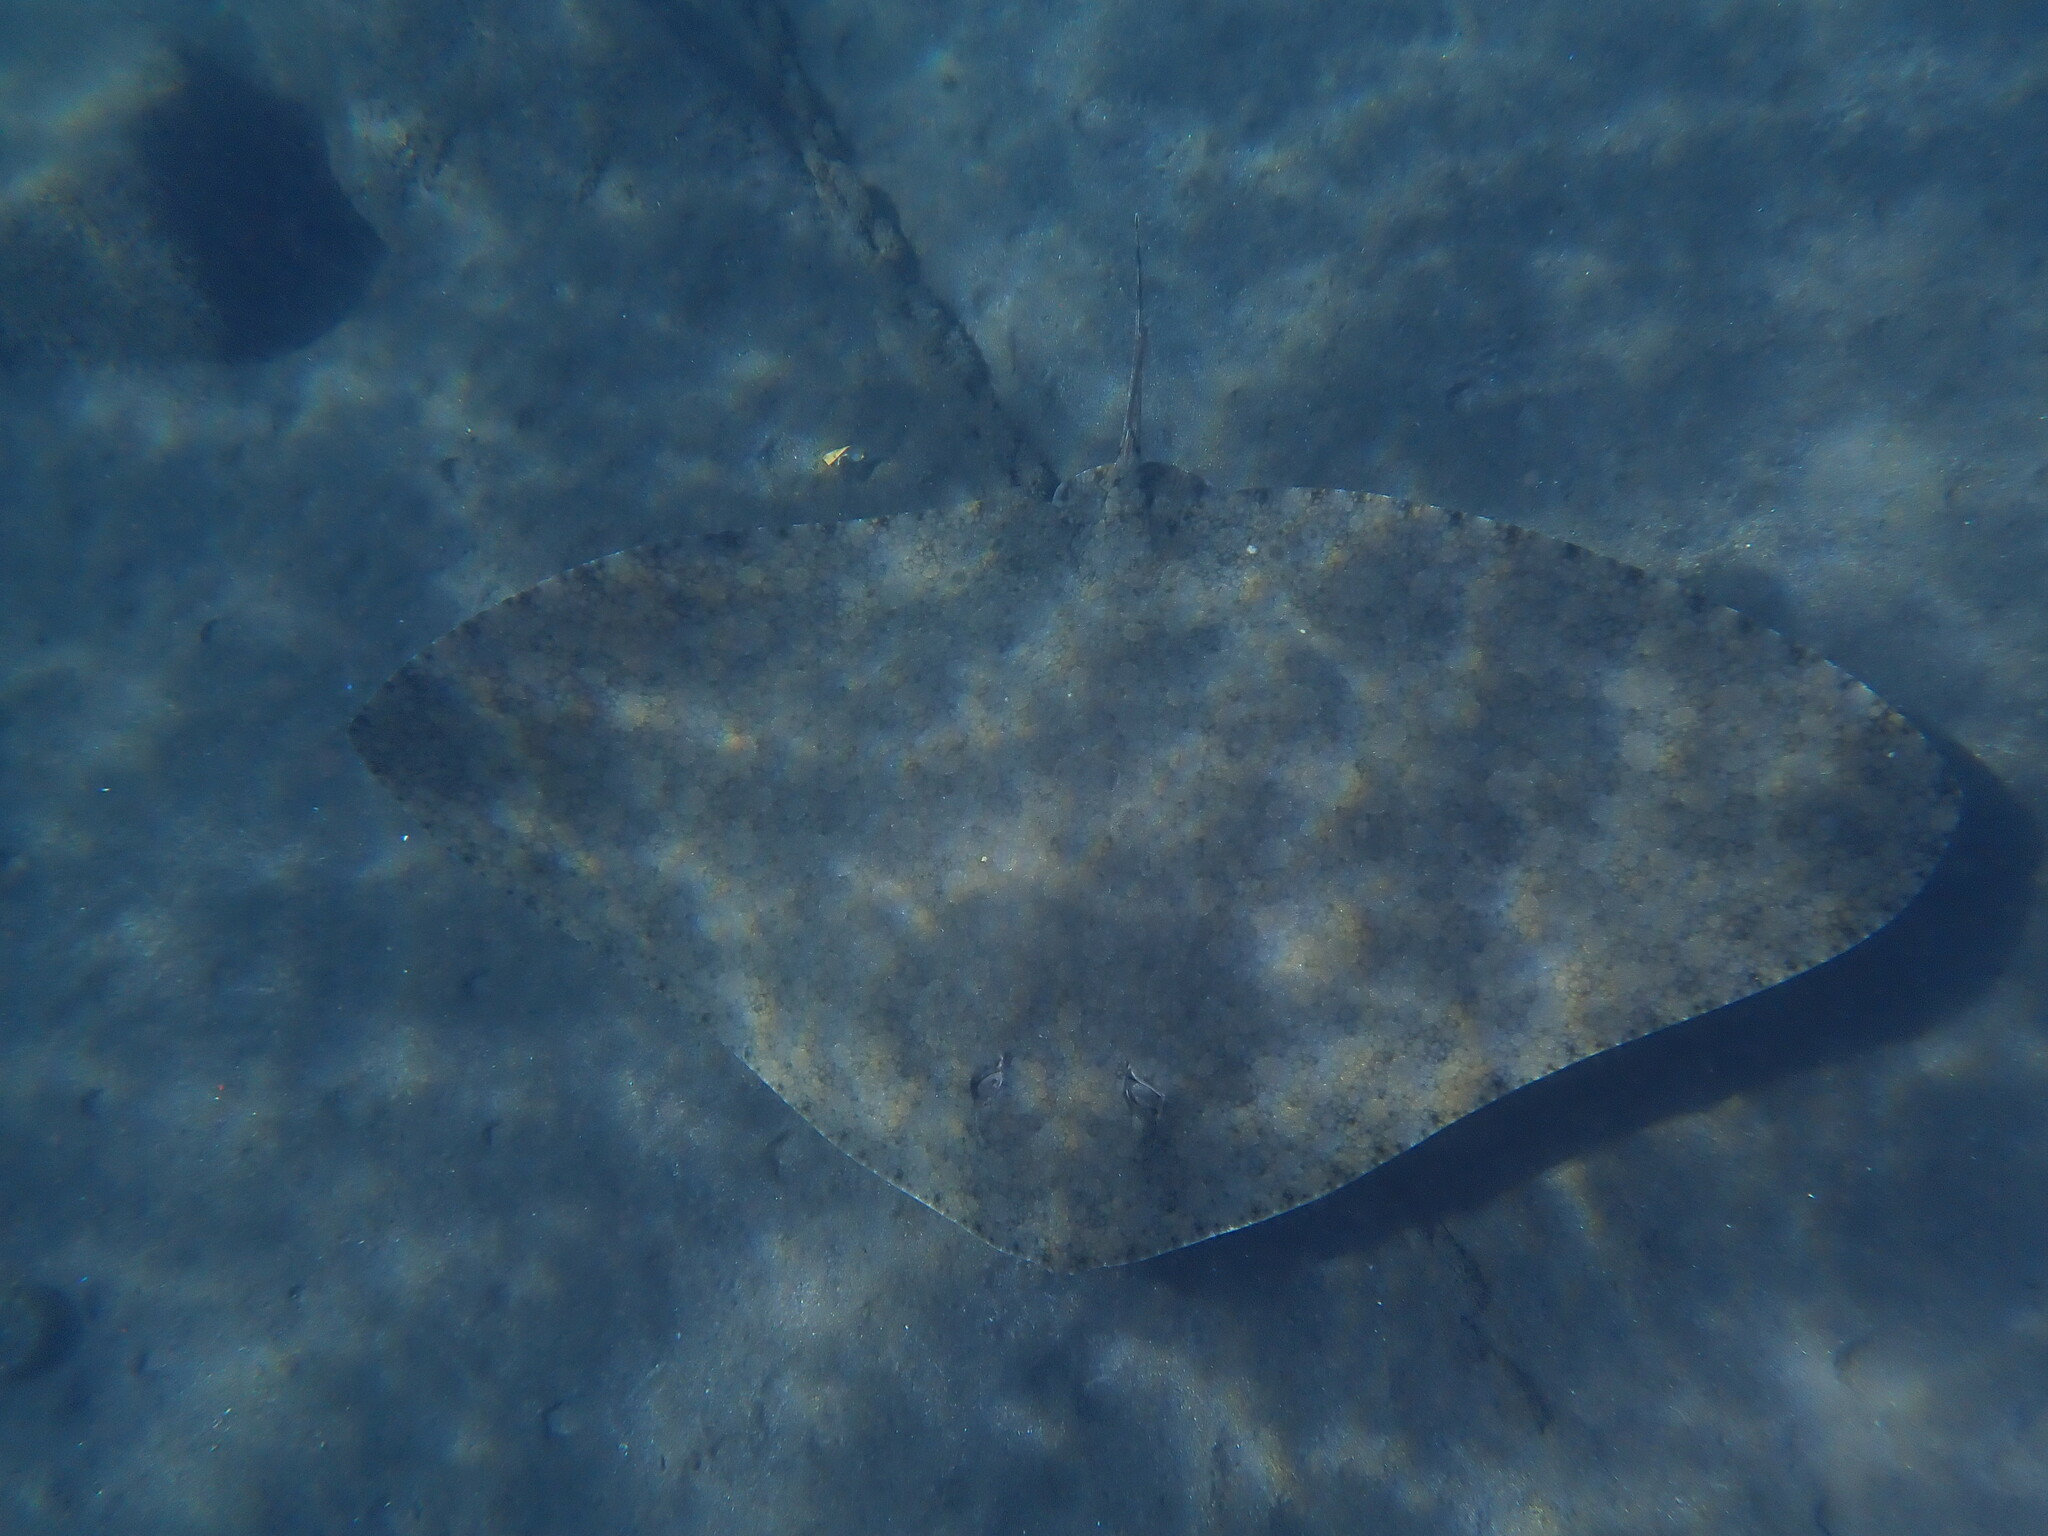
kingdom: Animalia
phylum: Chordata
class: Elasmobranchii
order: Myliobatiformes
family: Gymnuridae
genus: Gymnura
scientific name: Gymnura altavela
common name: Spiny butterfly ray
